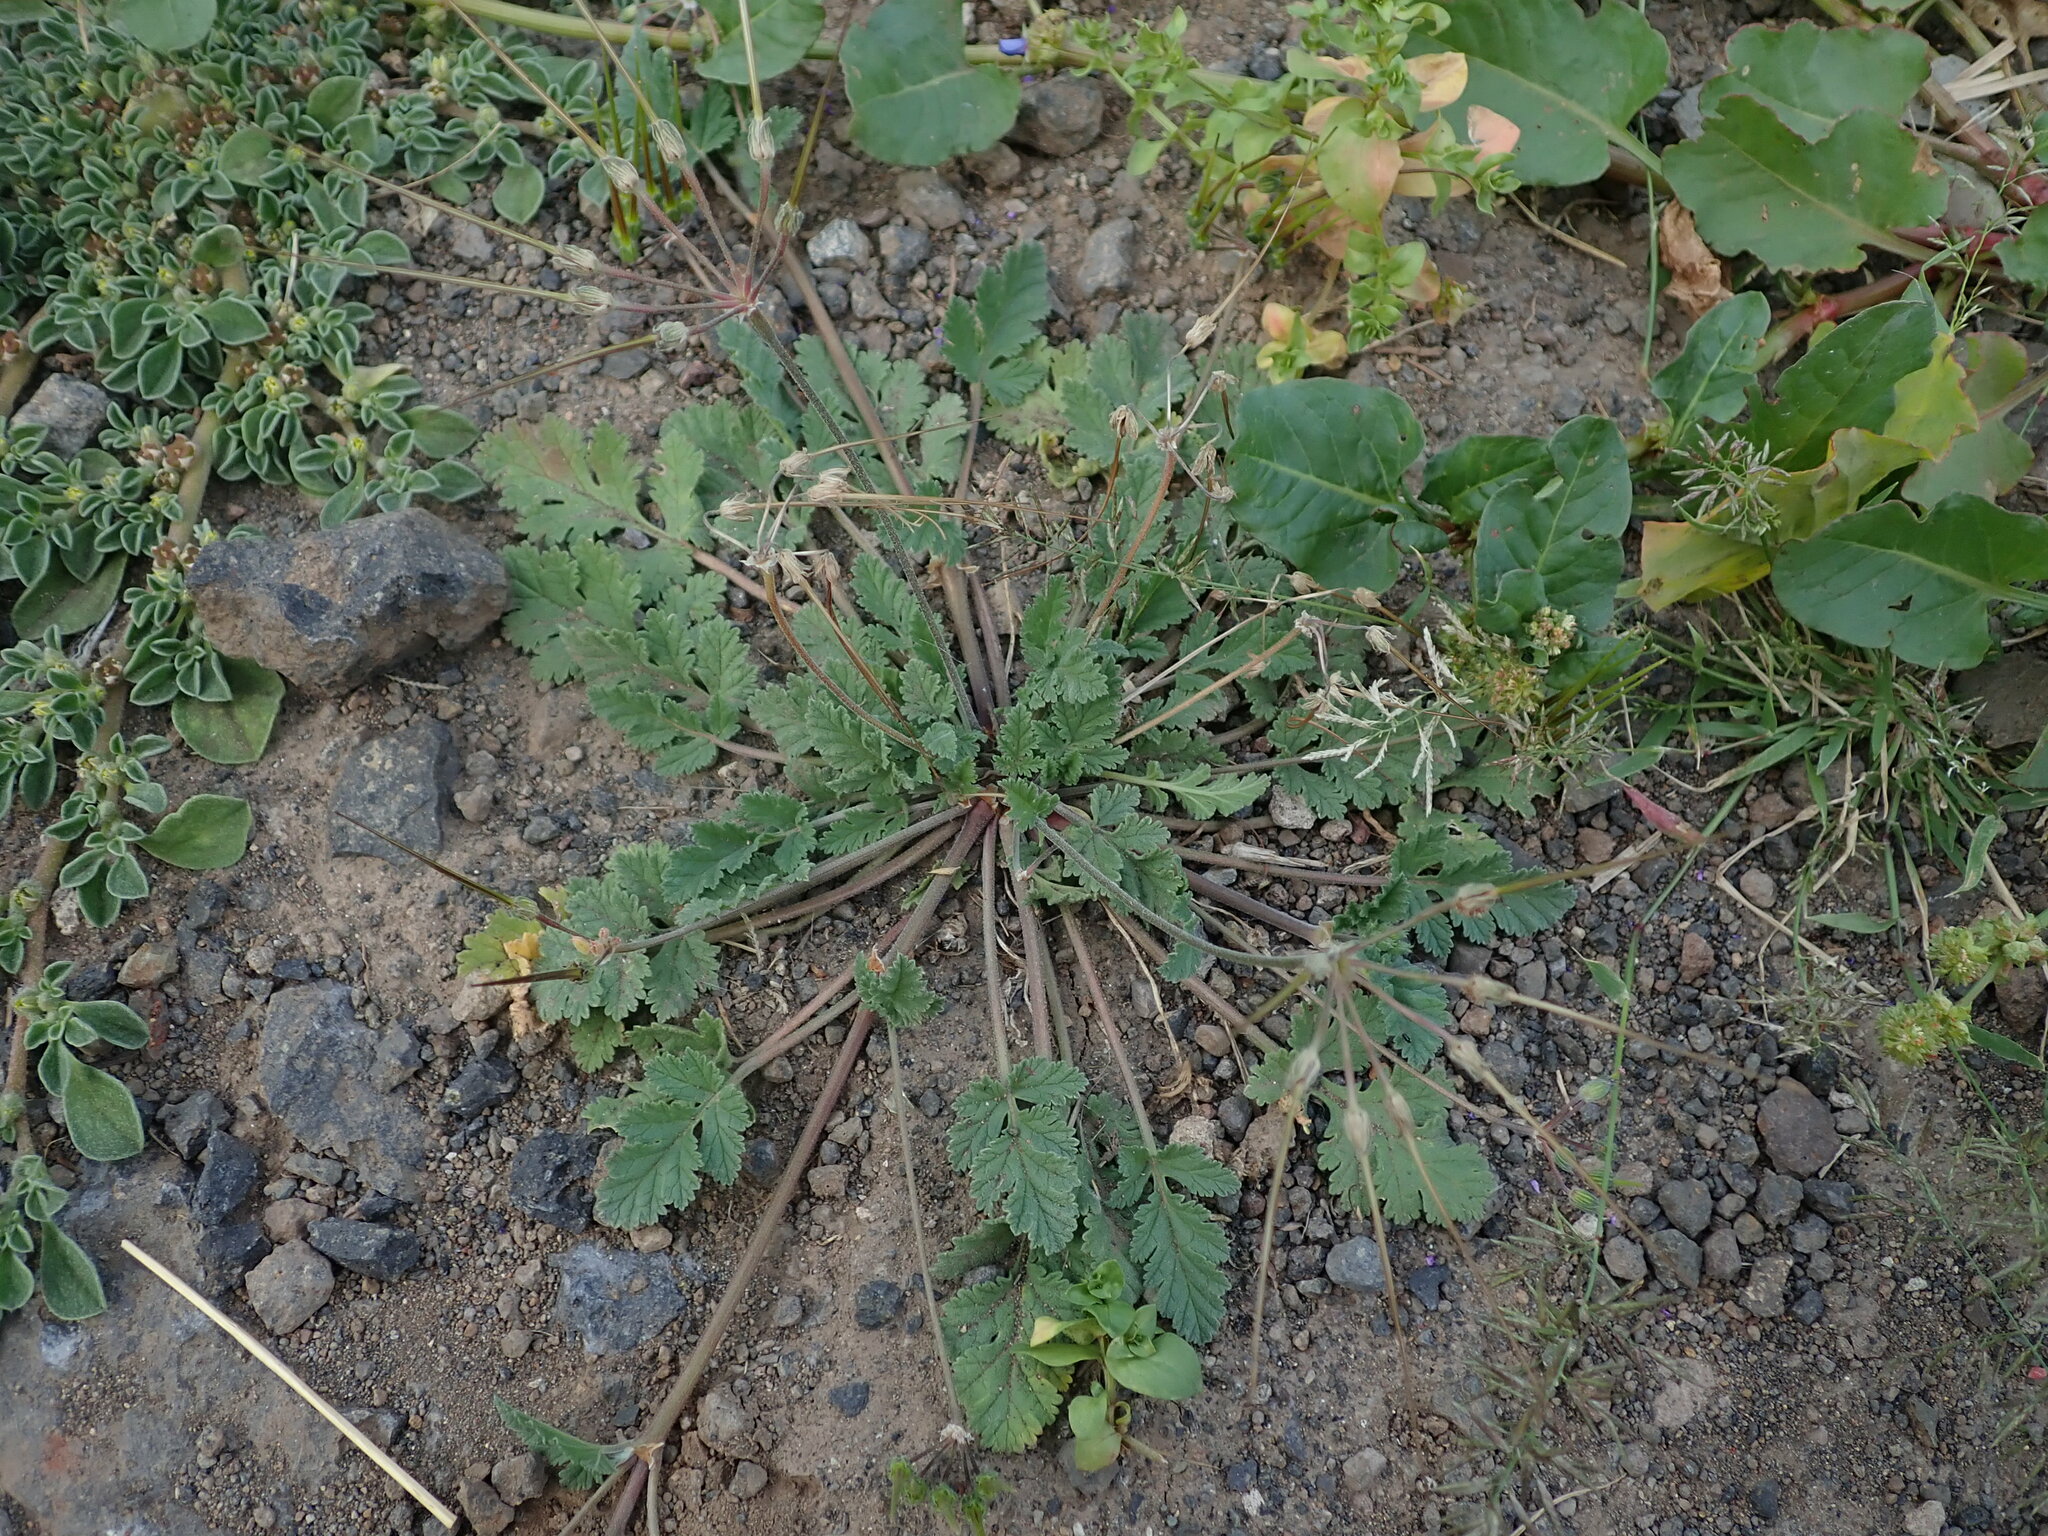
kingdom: Plantae
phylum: Tracheophyta
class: Magnoliopsida
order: Geraniales
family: Geraniaceae
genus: Erodium
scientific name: Erodium malacoides
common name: Soft stork's-bill
